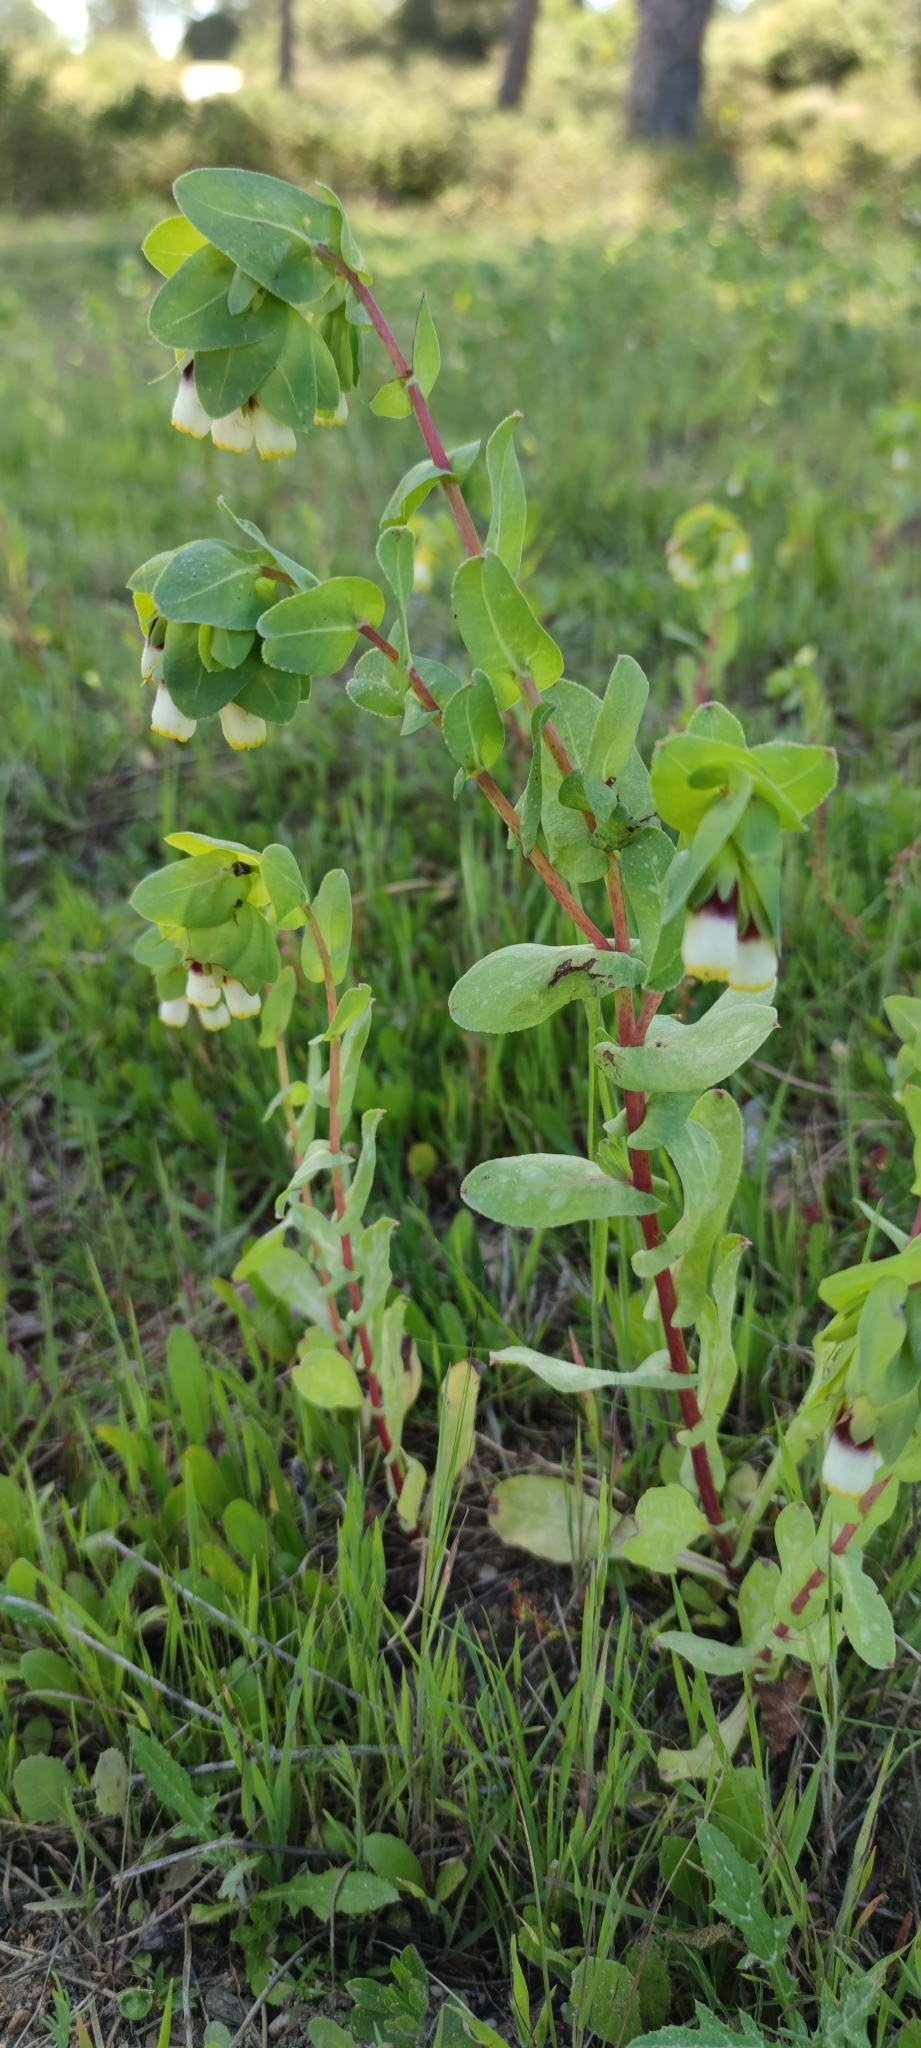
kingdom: Plantae
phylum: Tracheophyta
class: Magnoliopsida
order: Boraginales
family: Boraginaceae
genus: Cerinthe
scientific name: Cerinthe major
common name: Greater honeywort
